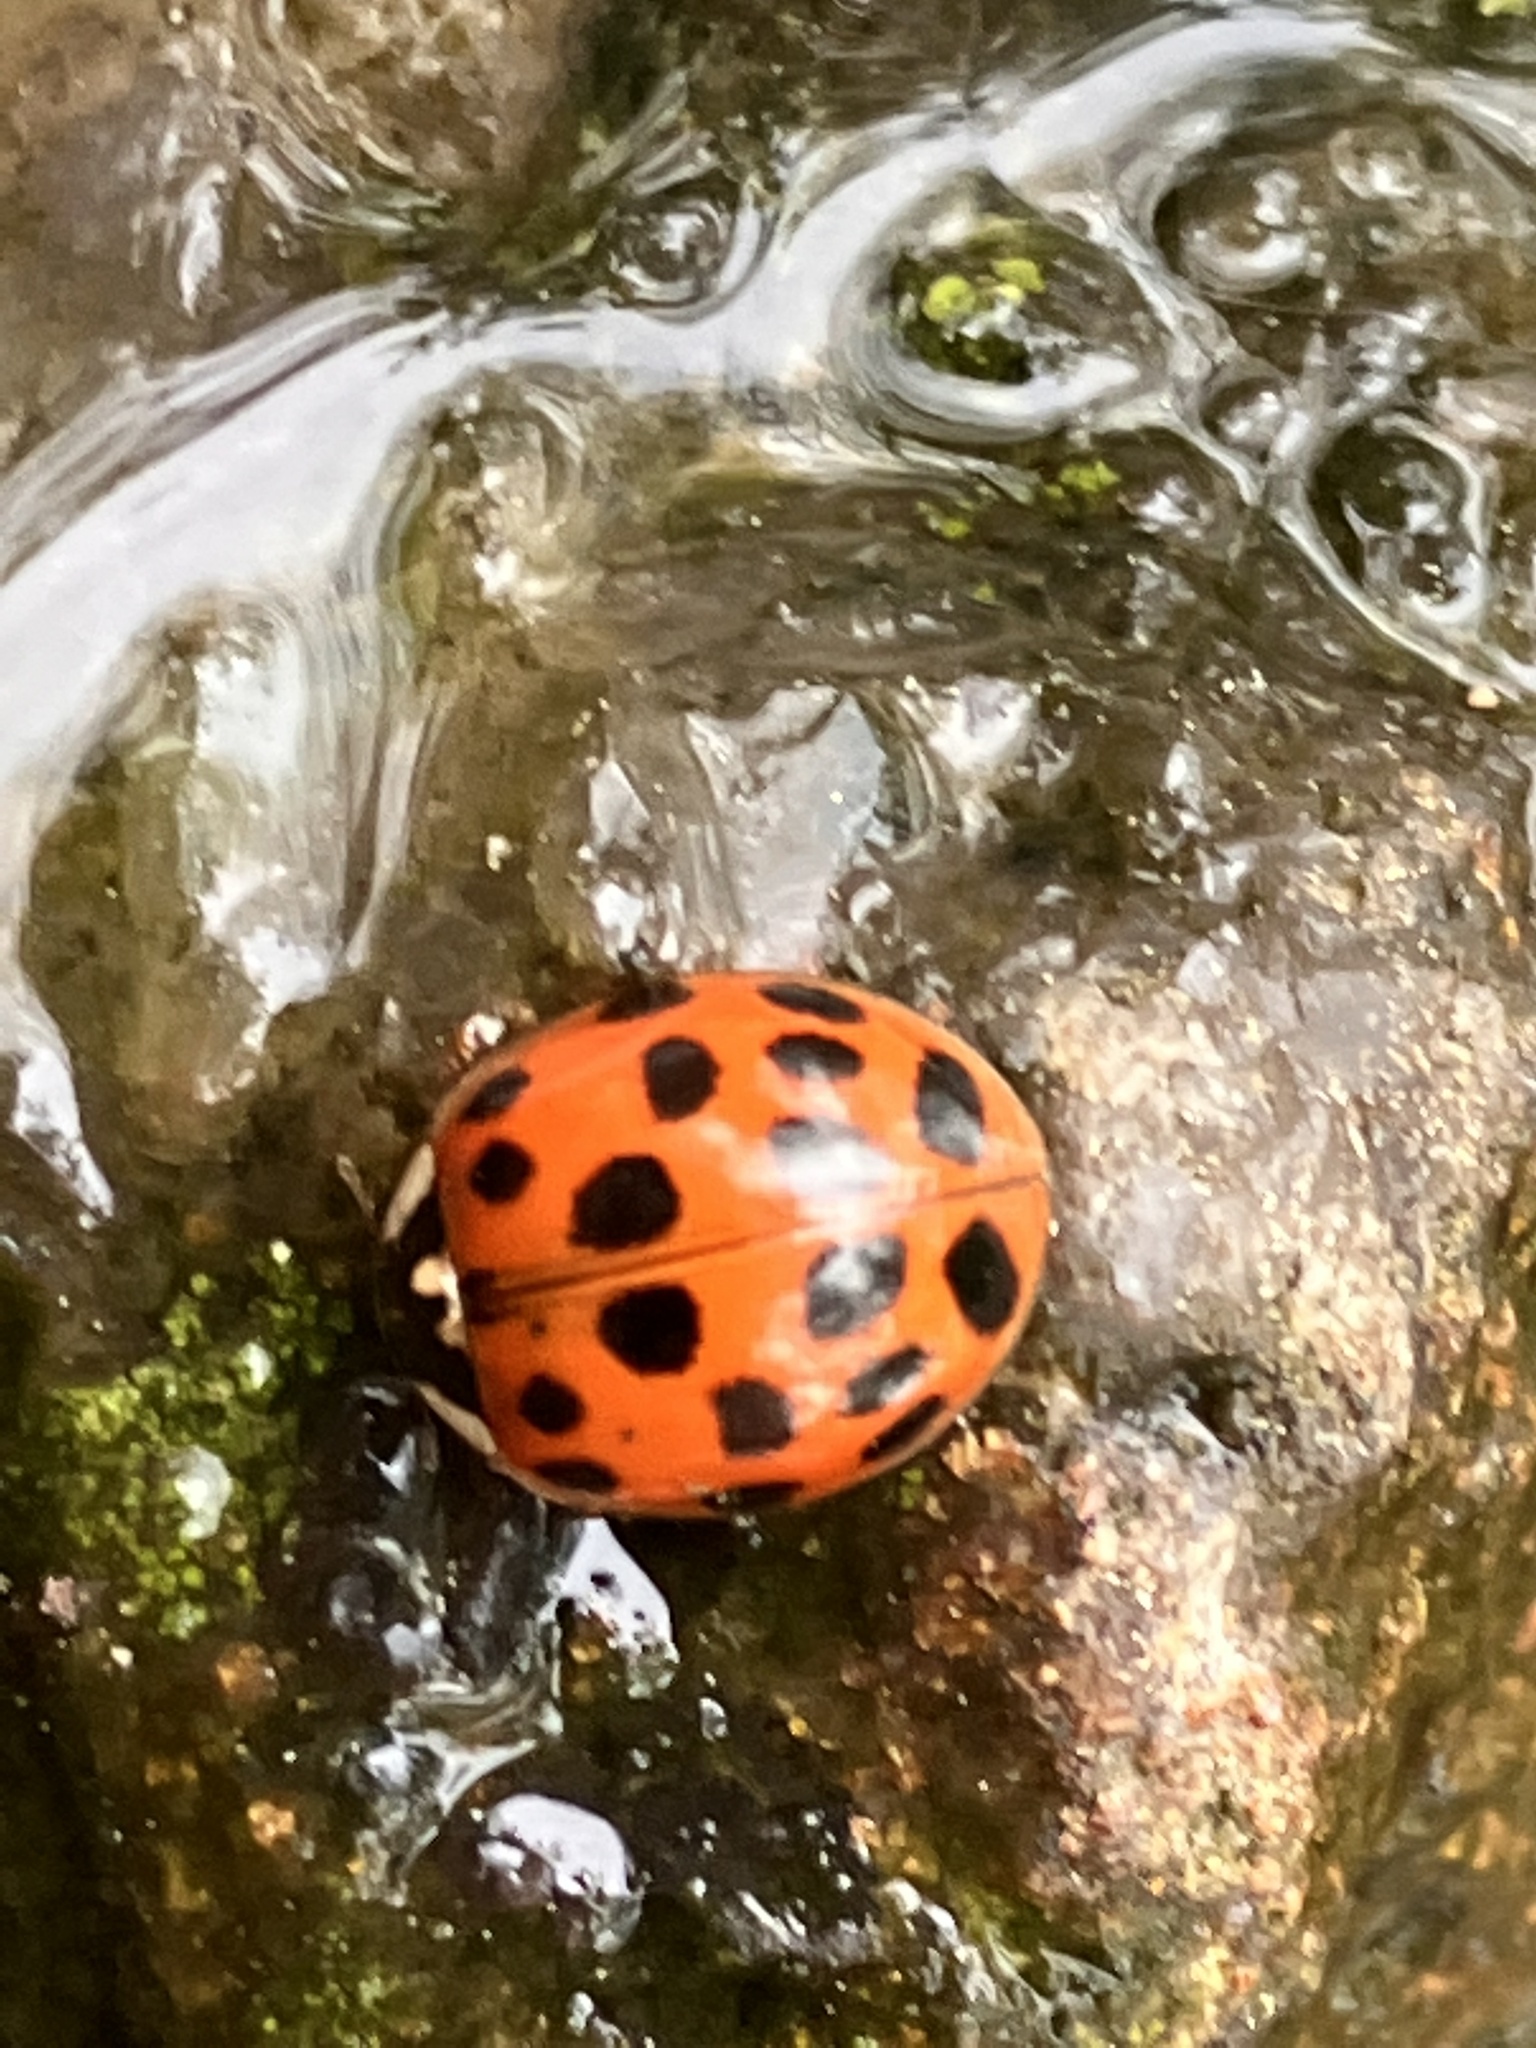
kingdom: Animalia
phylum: Arthropoda
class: Insecta
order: Coleoptera
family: Coccinellidae
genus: Harmonia
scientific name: Harmonia axyridis
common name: Harlequin ladybird
